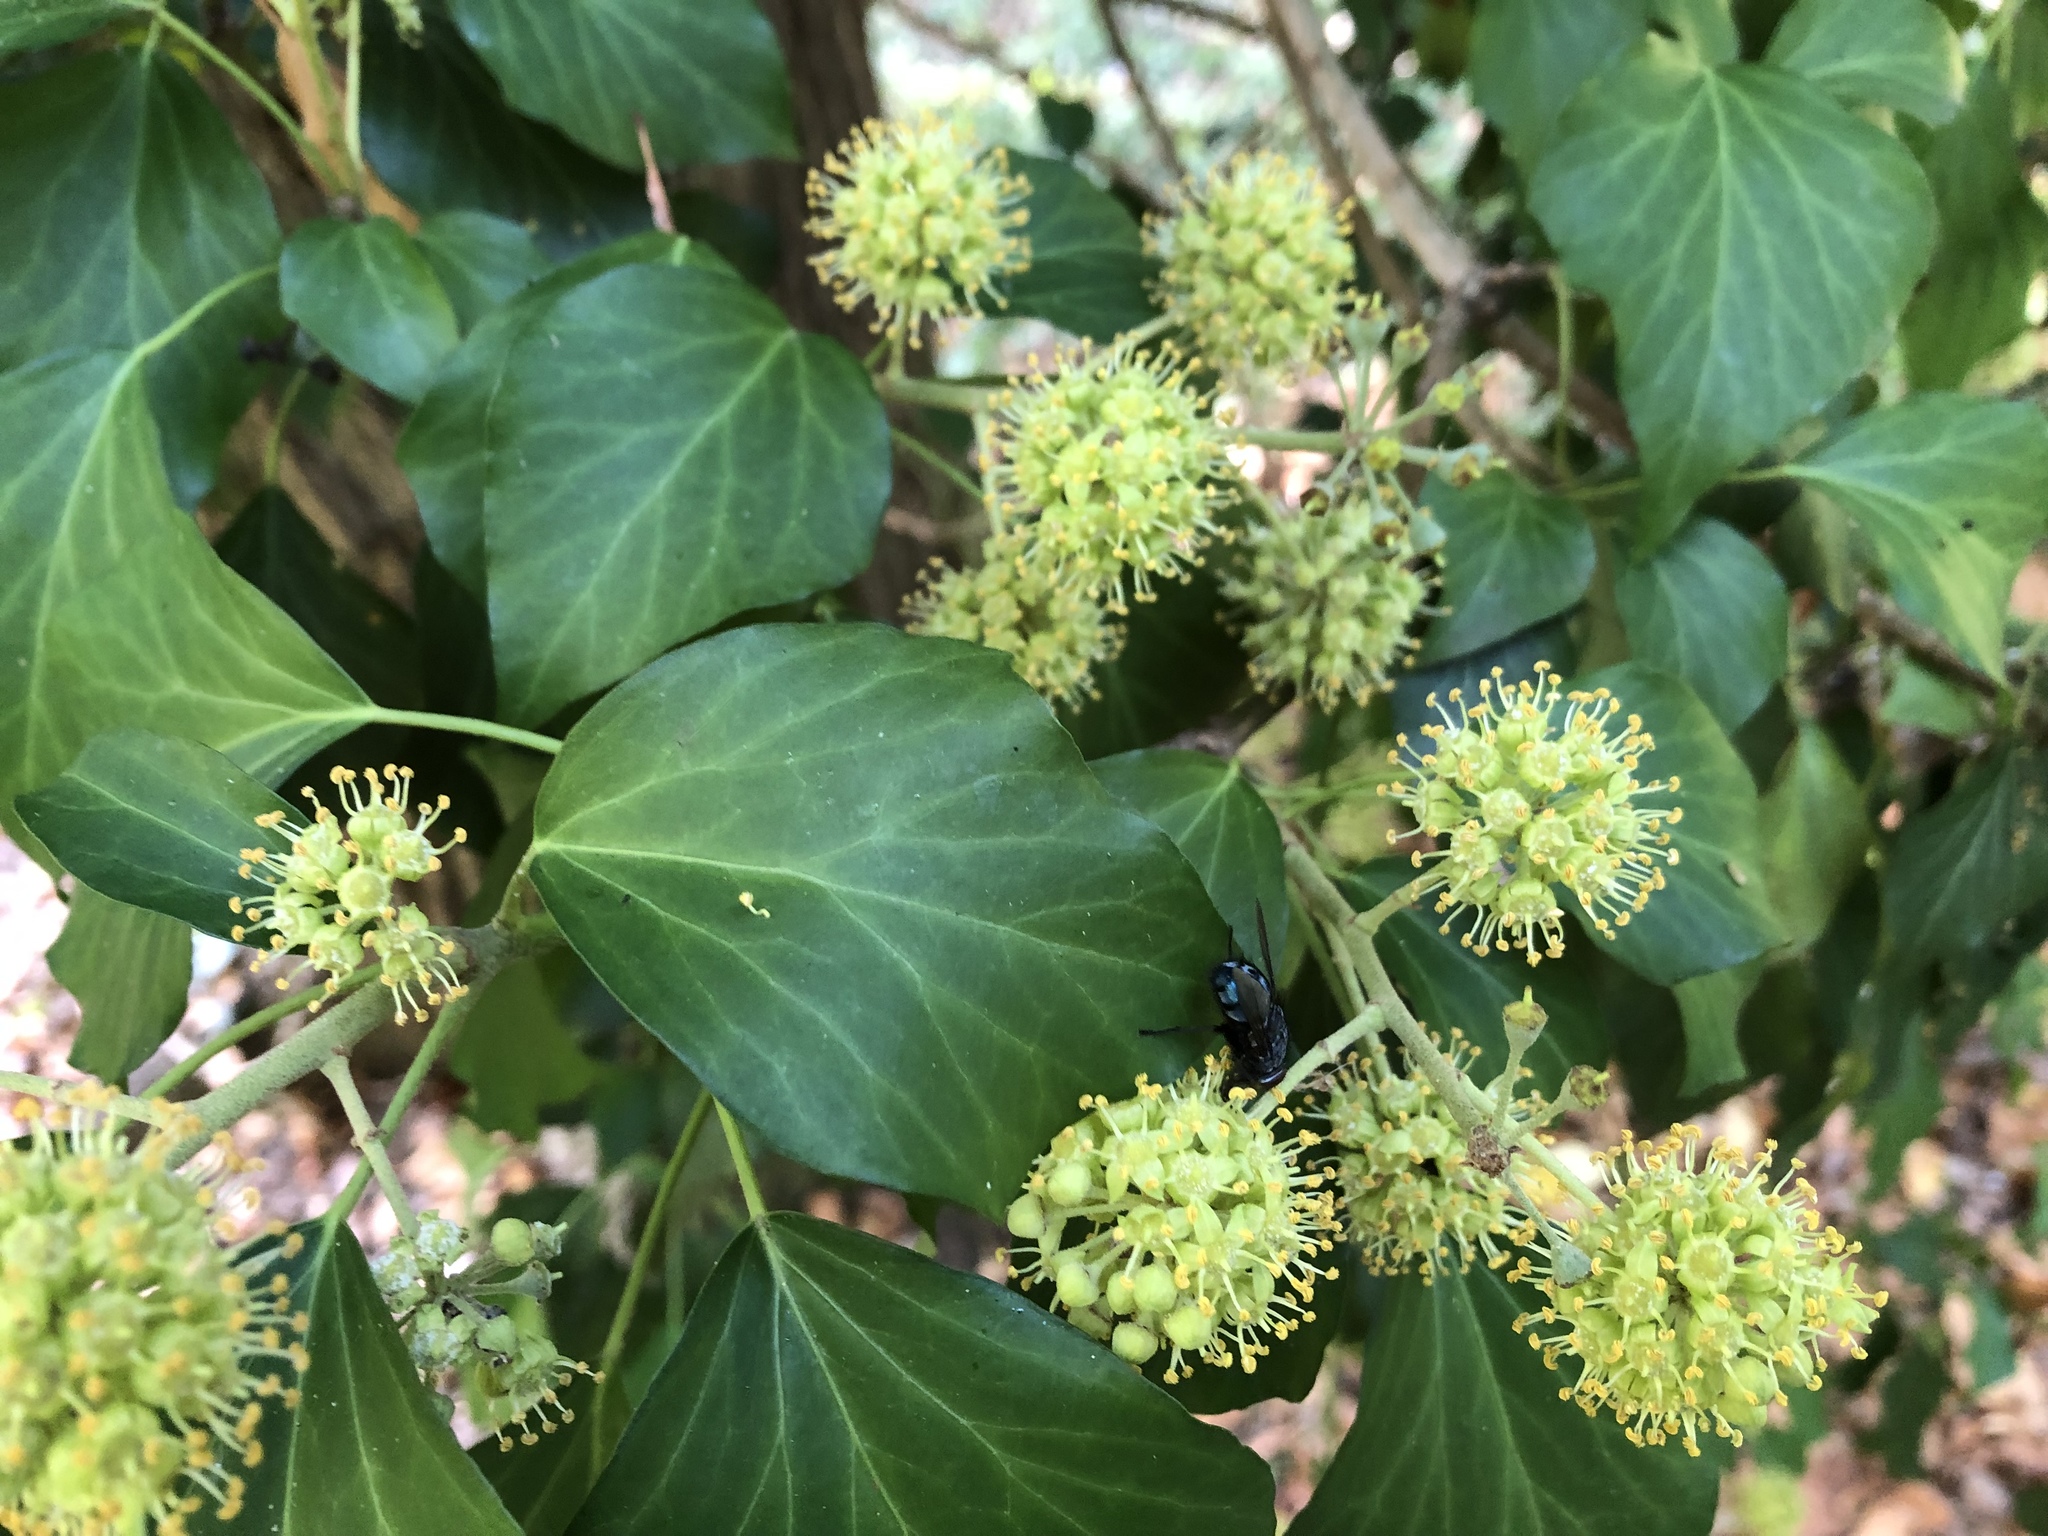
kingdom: Plantae
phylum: Tracheophyta
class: Magnoliopsida
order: Apiales
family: Araliaceae
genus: Hedera
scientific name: Hedera helix
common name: Ivy
